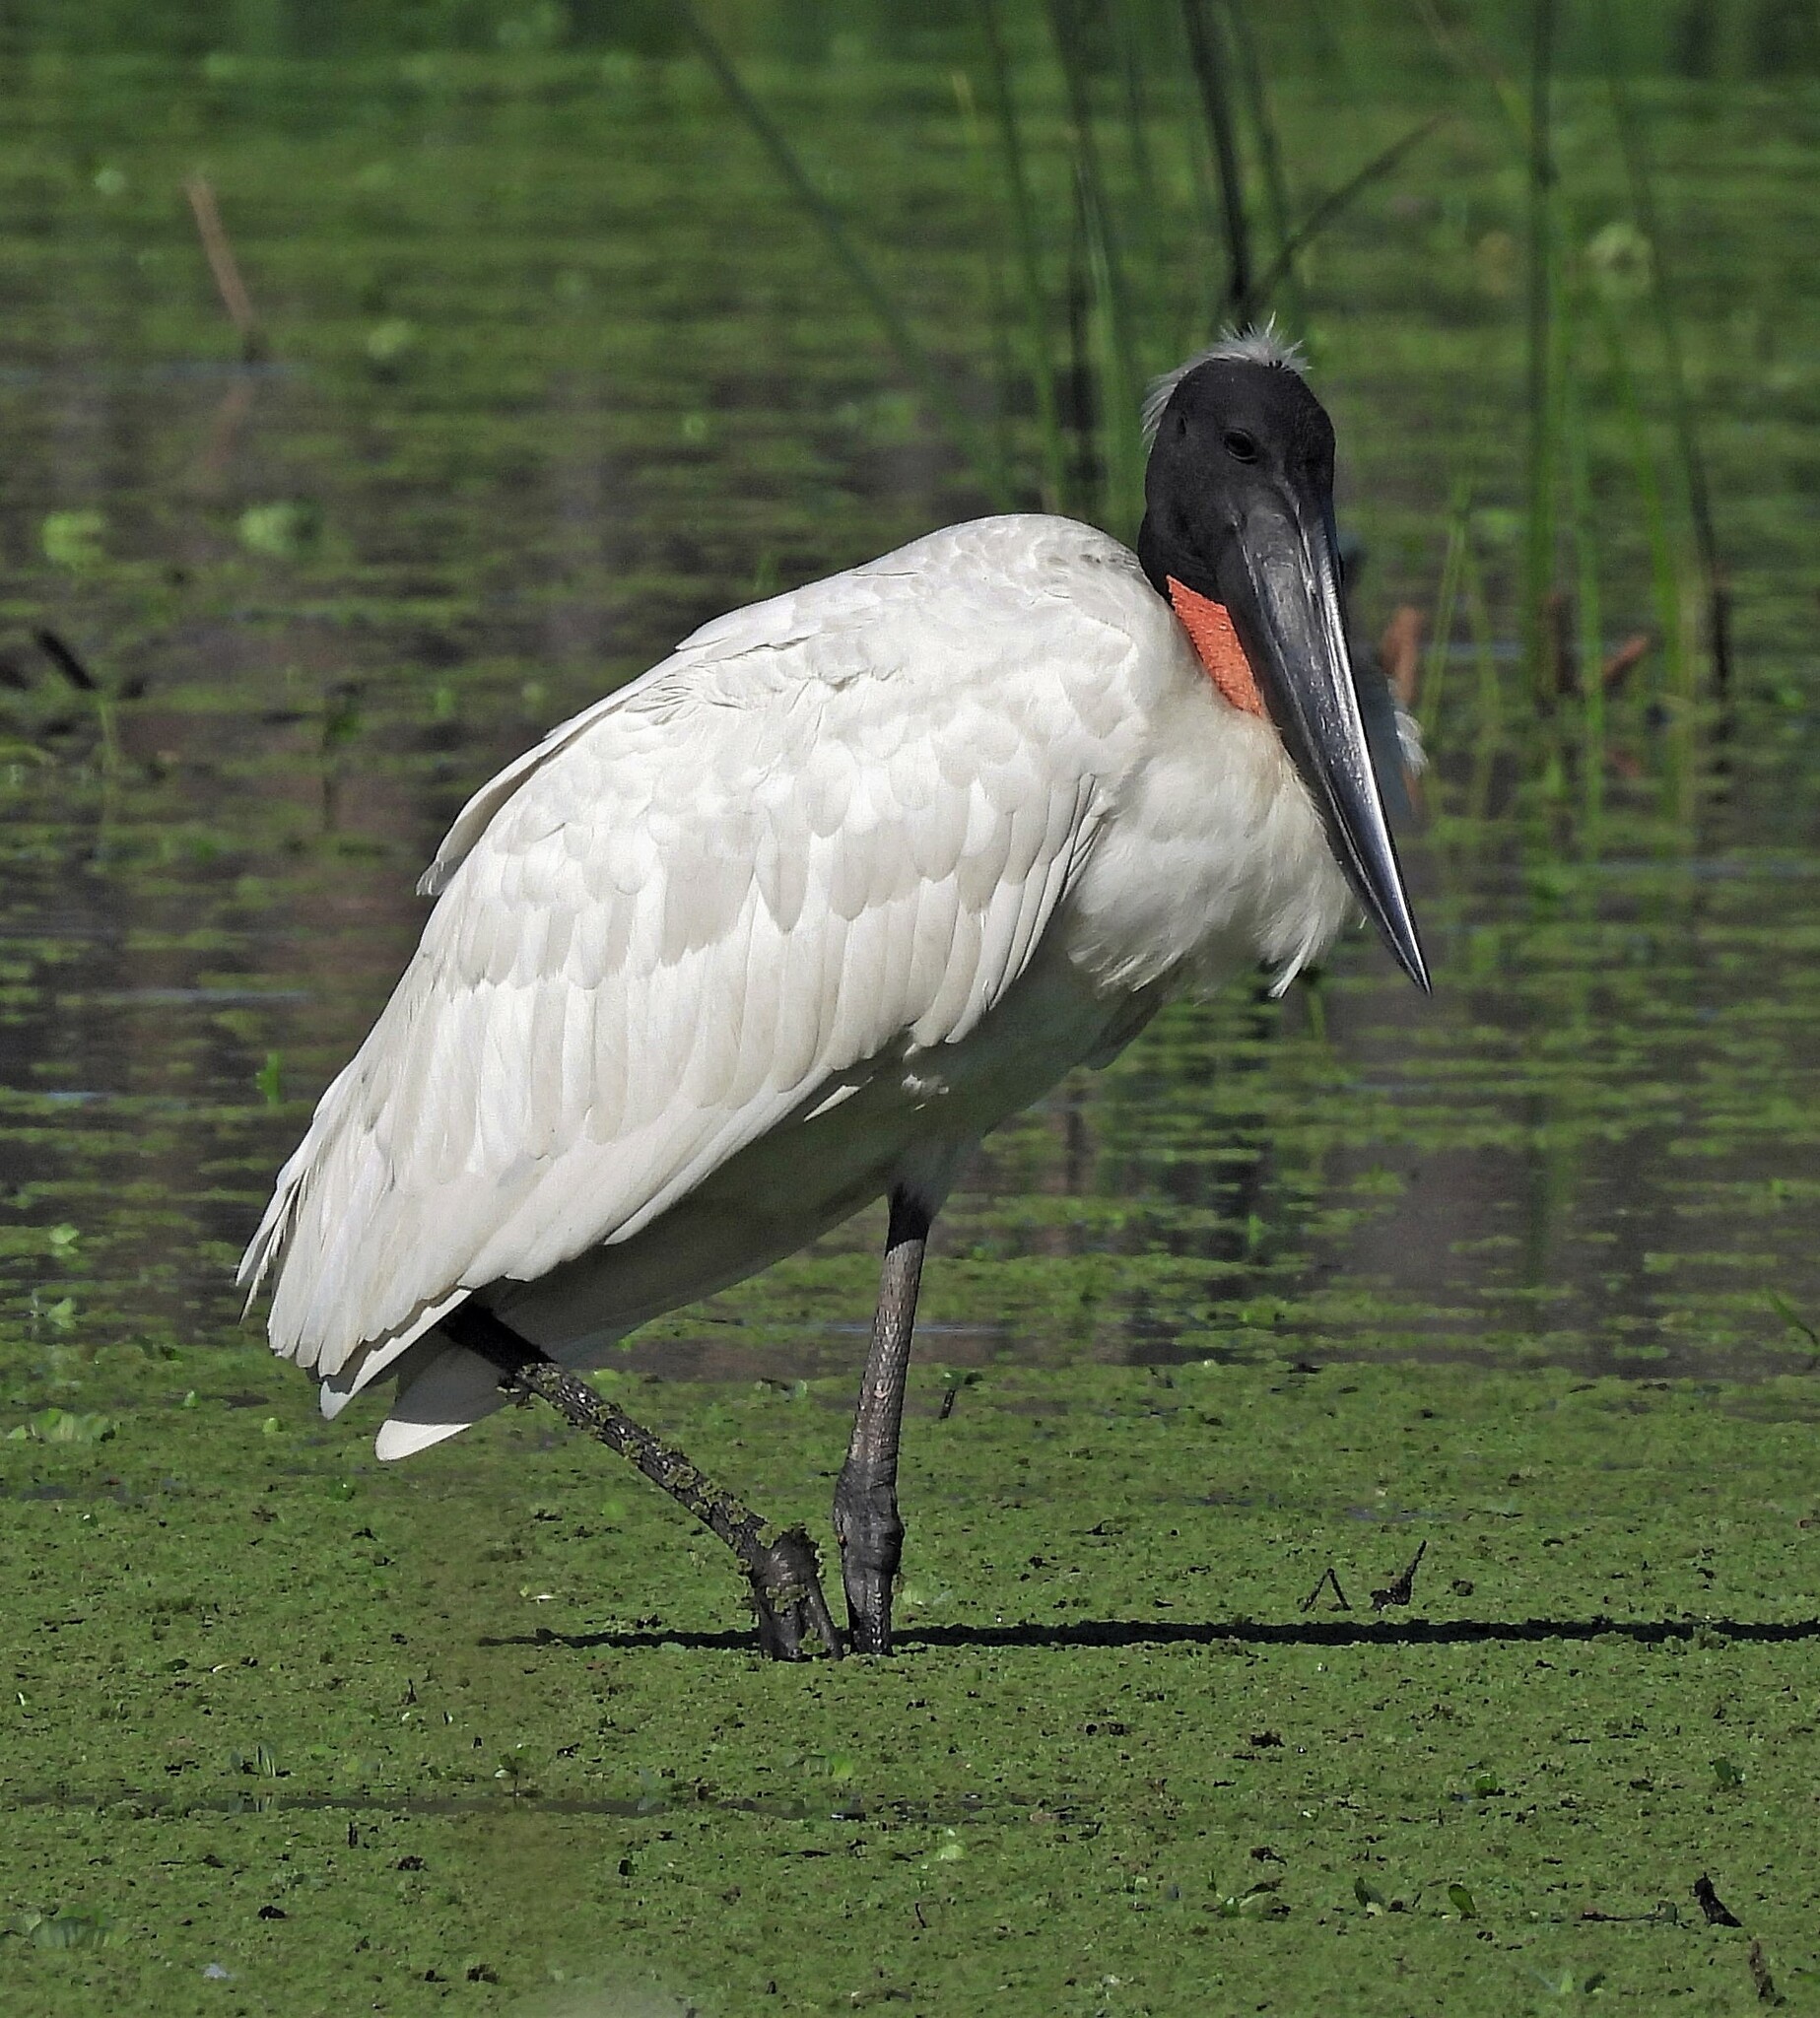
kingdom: Animalia
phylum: Chordata
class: Aves
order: Ciconiiformes
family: Ciconiidae
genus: Jabiru
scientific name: Jabiru mycteria
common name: Jabiru
